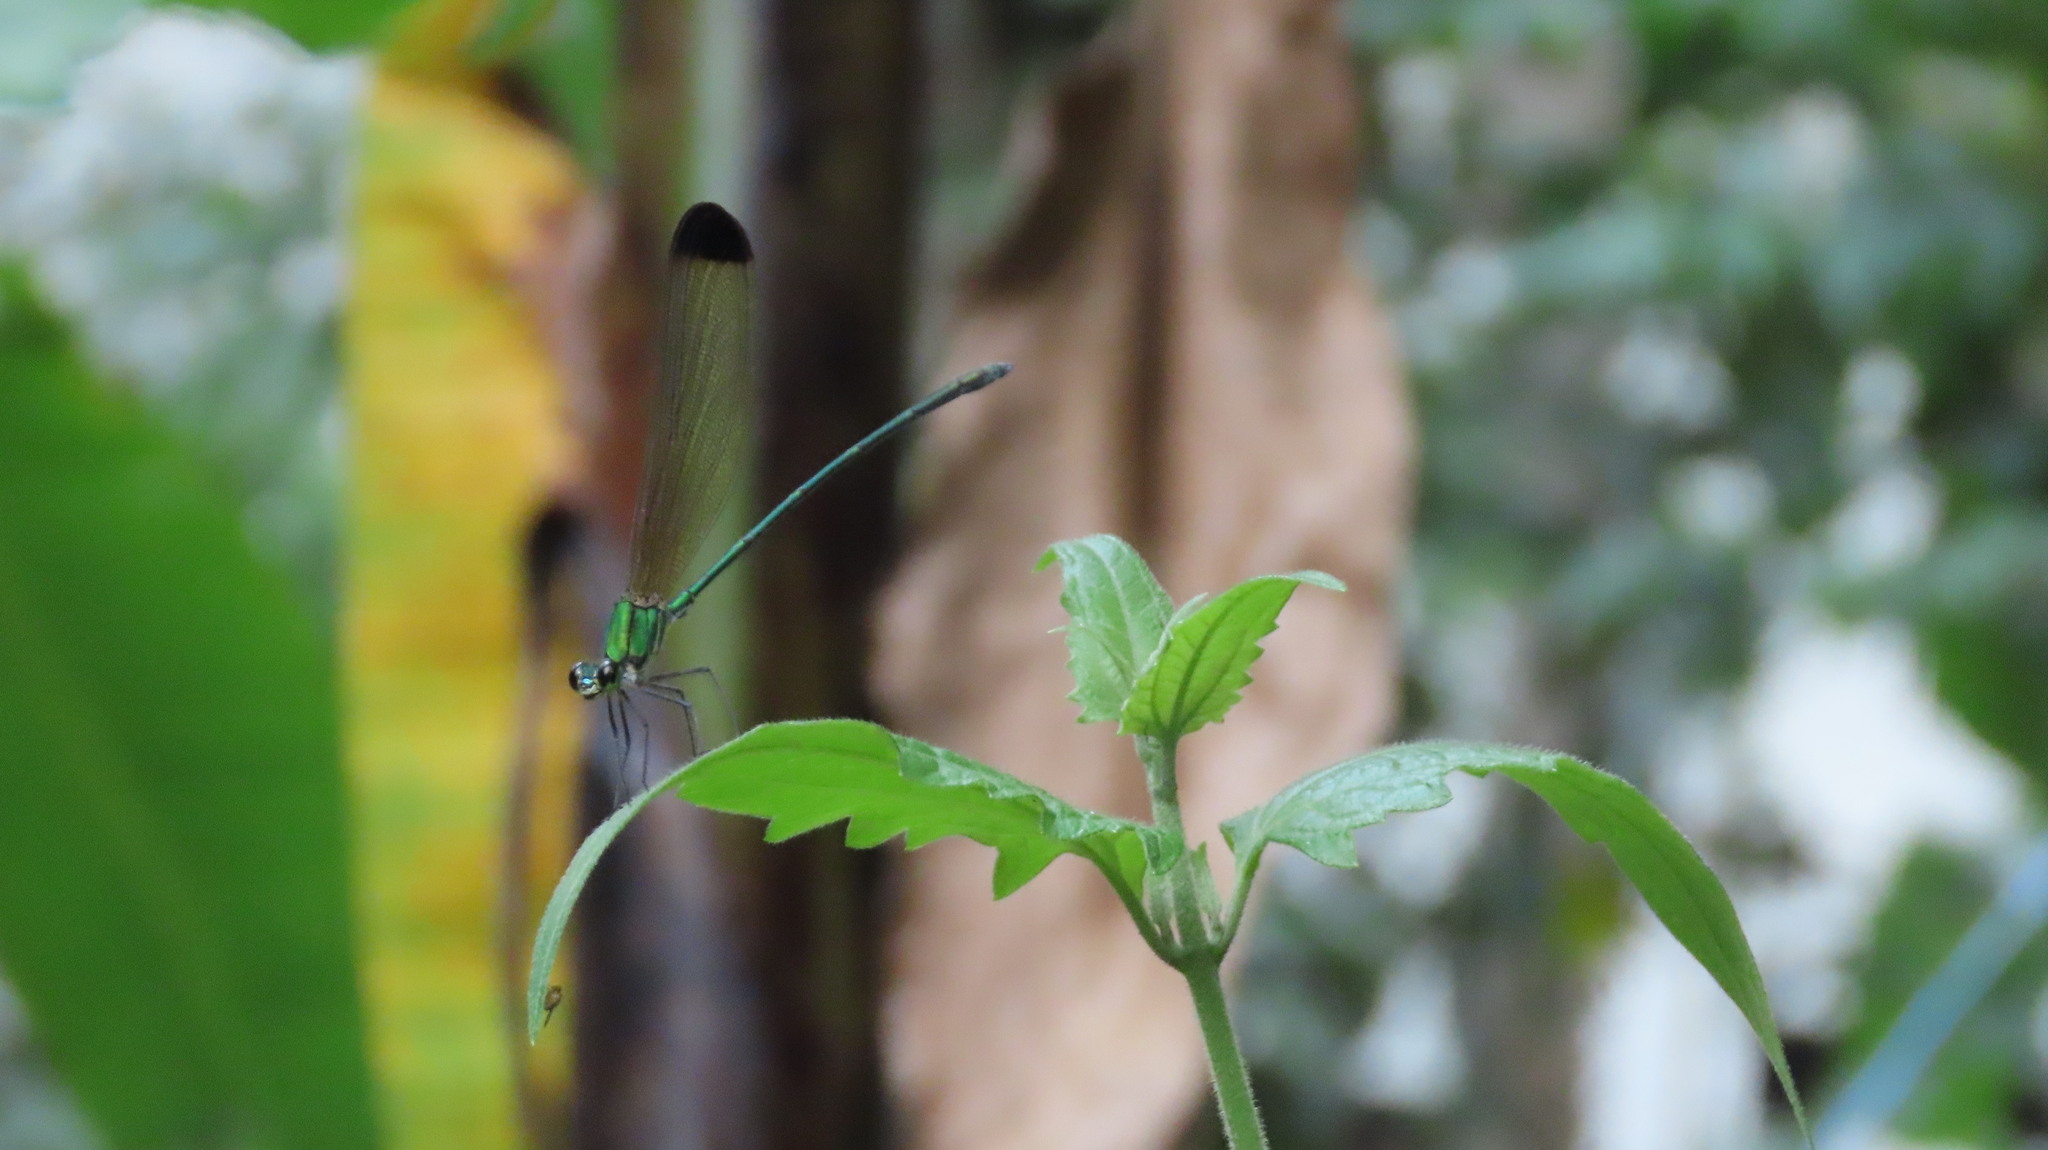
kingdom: Animalia
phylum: Arthropoda
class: Insecta
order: Odonata
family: Calopterygidae
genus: Vestalis
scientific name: Vestalis apicalis
